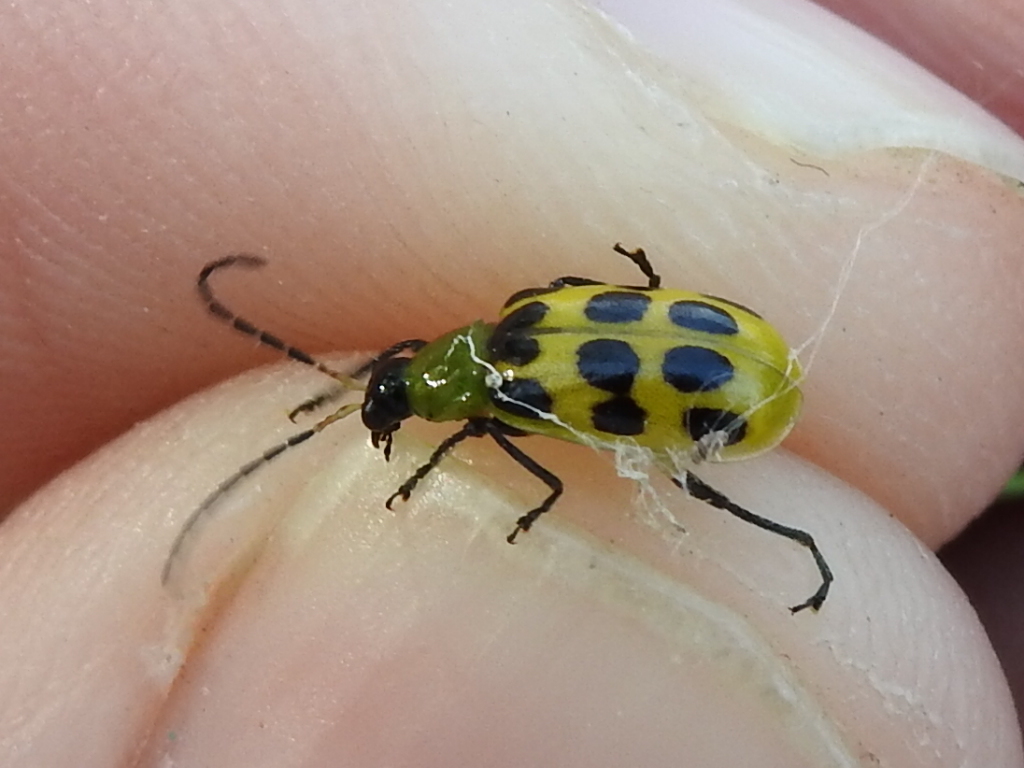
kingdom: Animalia
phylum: Arthropoda
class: Insecta
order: Coleoptera
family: Chrysomelidae
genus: Diabrotica
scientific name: Diabrotica undecimpunctata
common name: Spotted cucumber beetle
